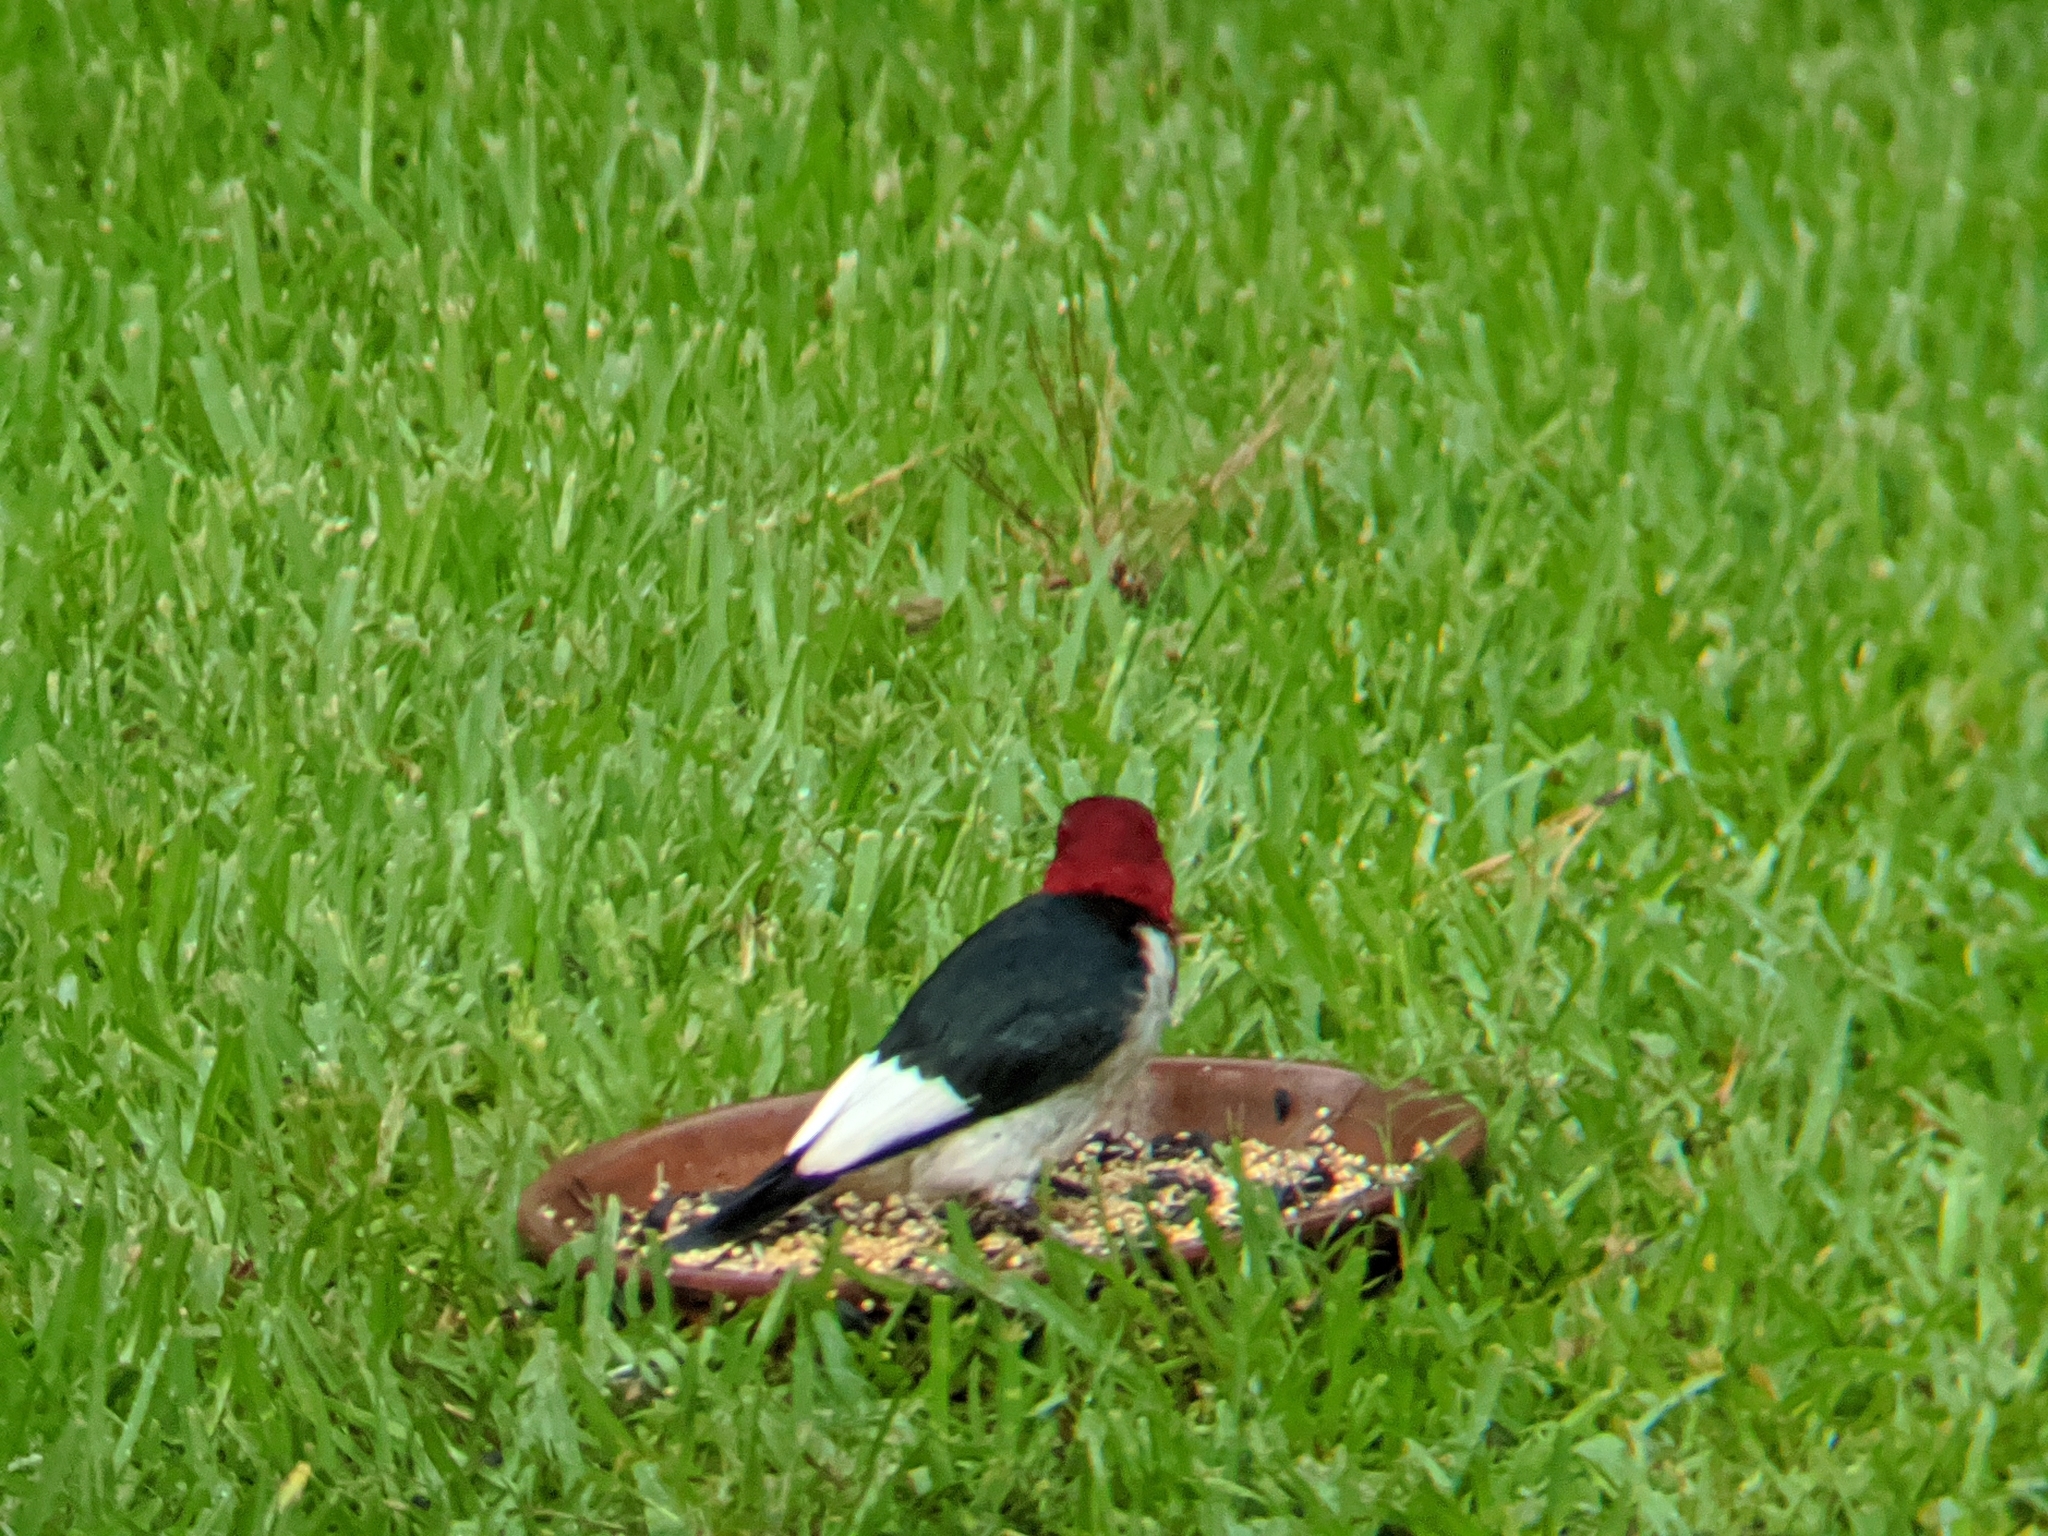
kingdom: Animalia
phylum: Chordata
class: Aves
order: Piciformes
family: Picidae
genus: Melanerpes
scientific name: Melanerpes erythrocephalus
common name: Red-headed woodpecker
